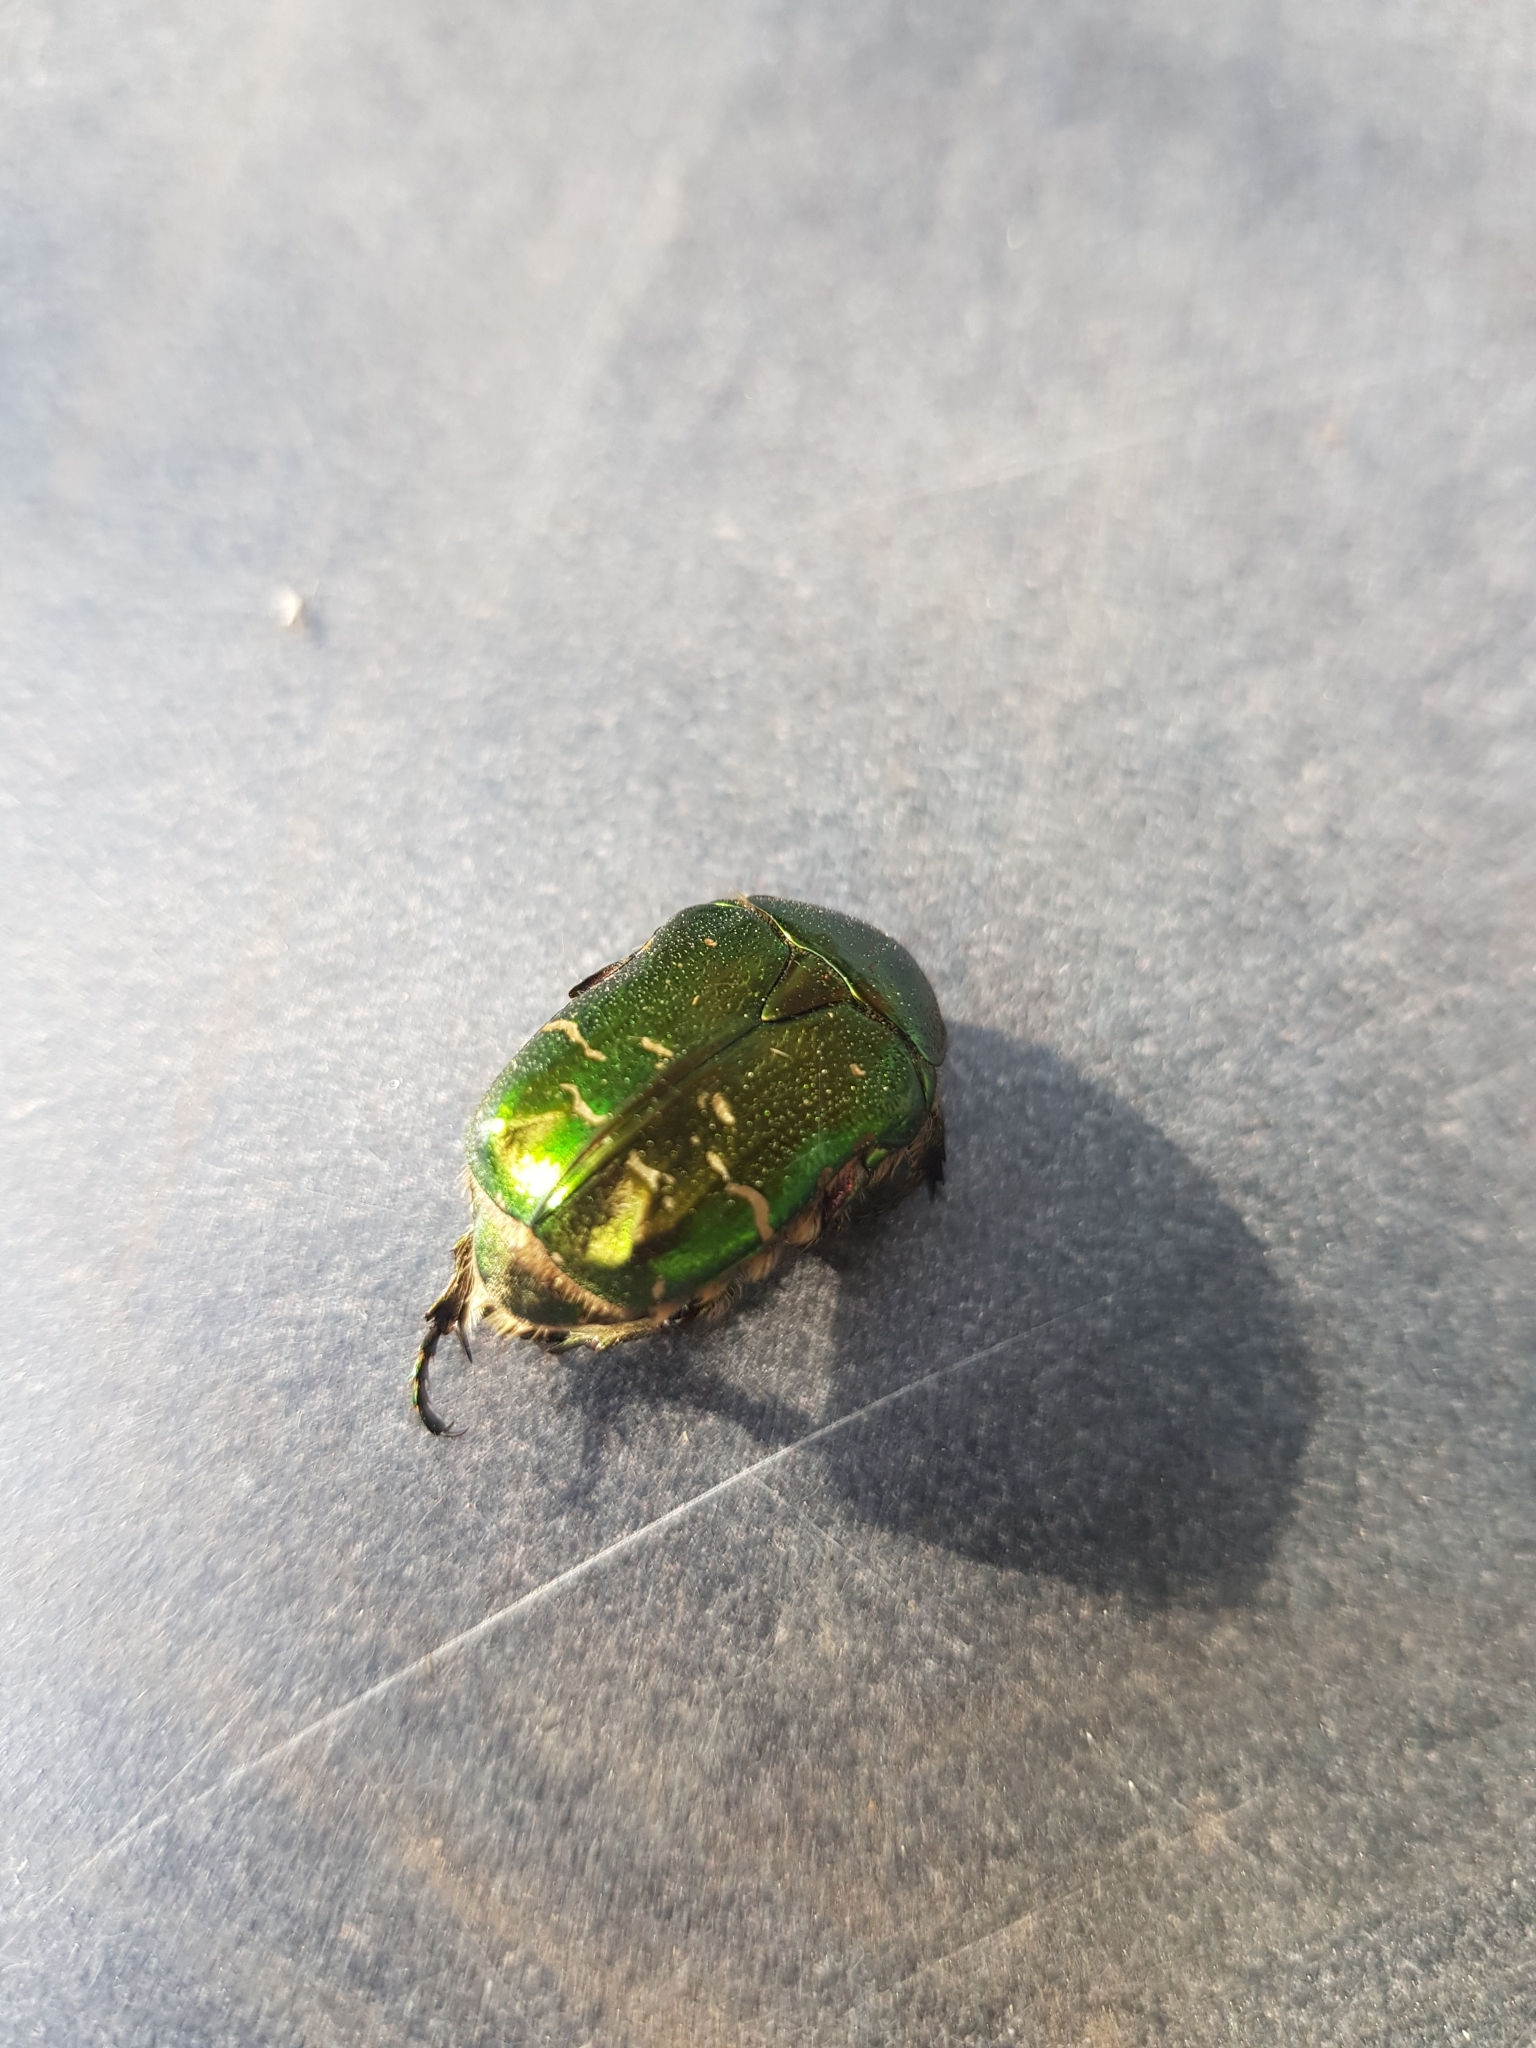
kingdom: Animalia
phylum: Arthropoda
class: Insecta
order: Coleoptera
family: Scarabaeidae
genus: Cetonia
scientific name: Cetonia aurata
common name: Rose chafer
